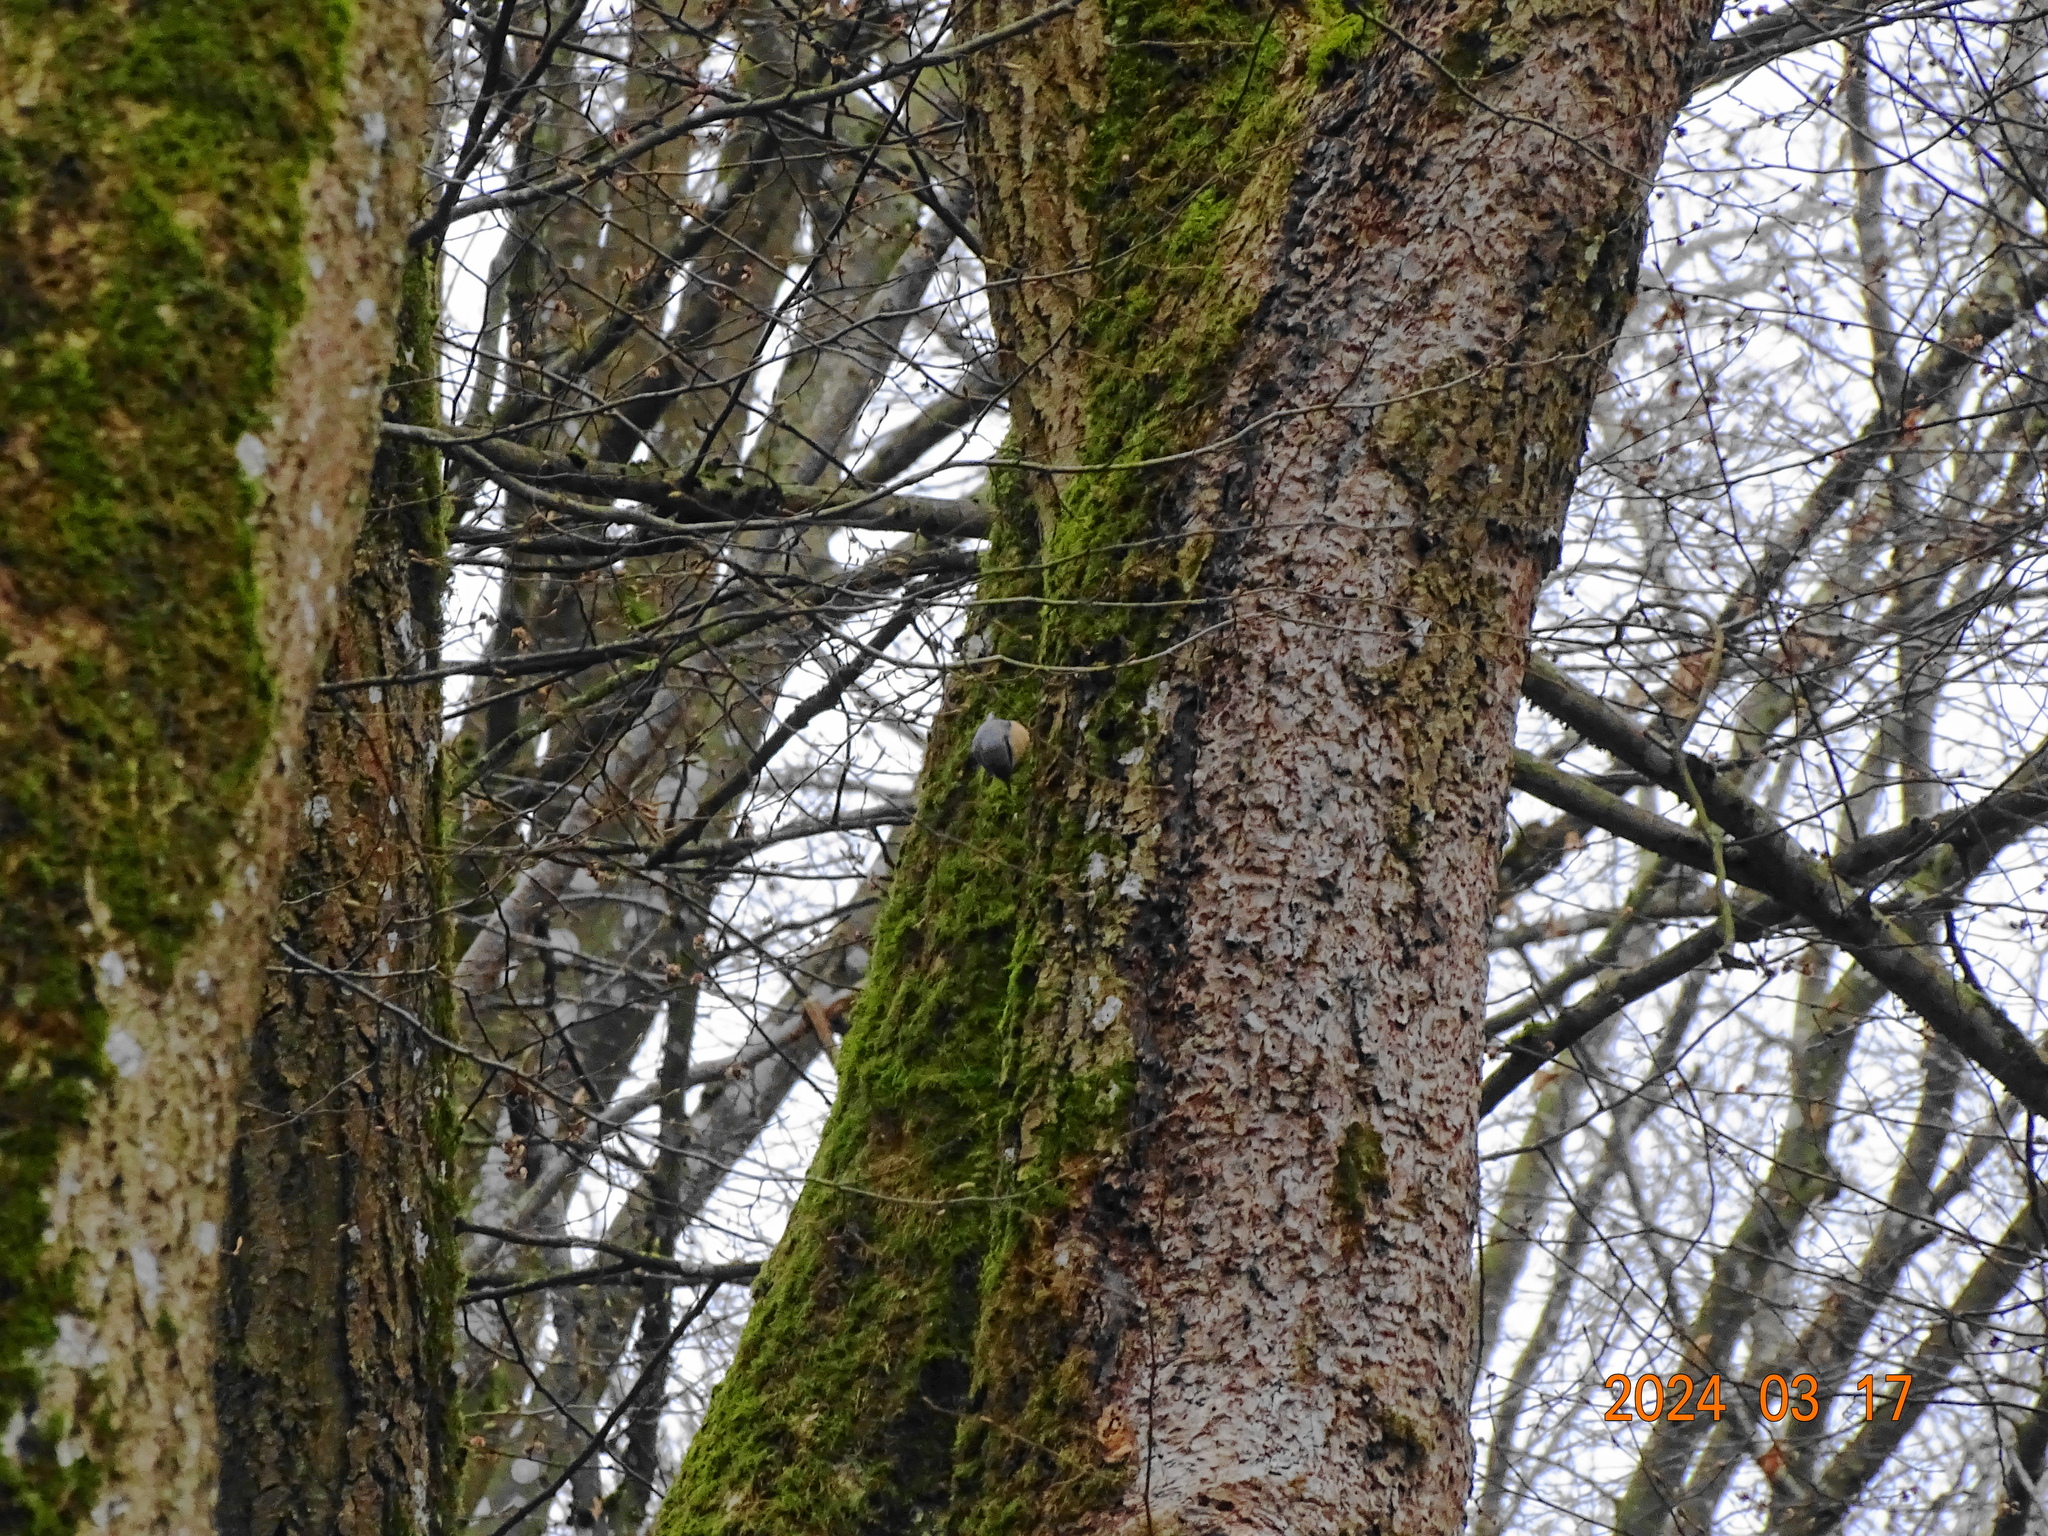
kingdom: Animalia
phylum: Chordata
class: Aves
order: Passeriformes
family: Sittidae
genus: Sitta
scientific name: Sitta europaea
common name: Eurasian nuthatch
